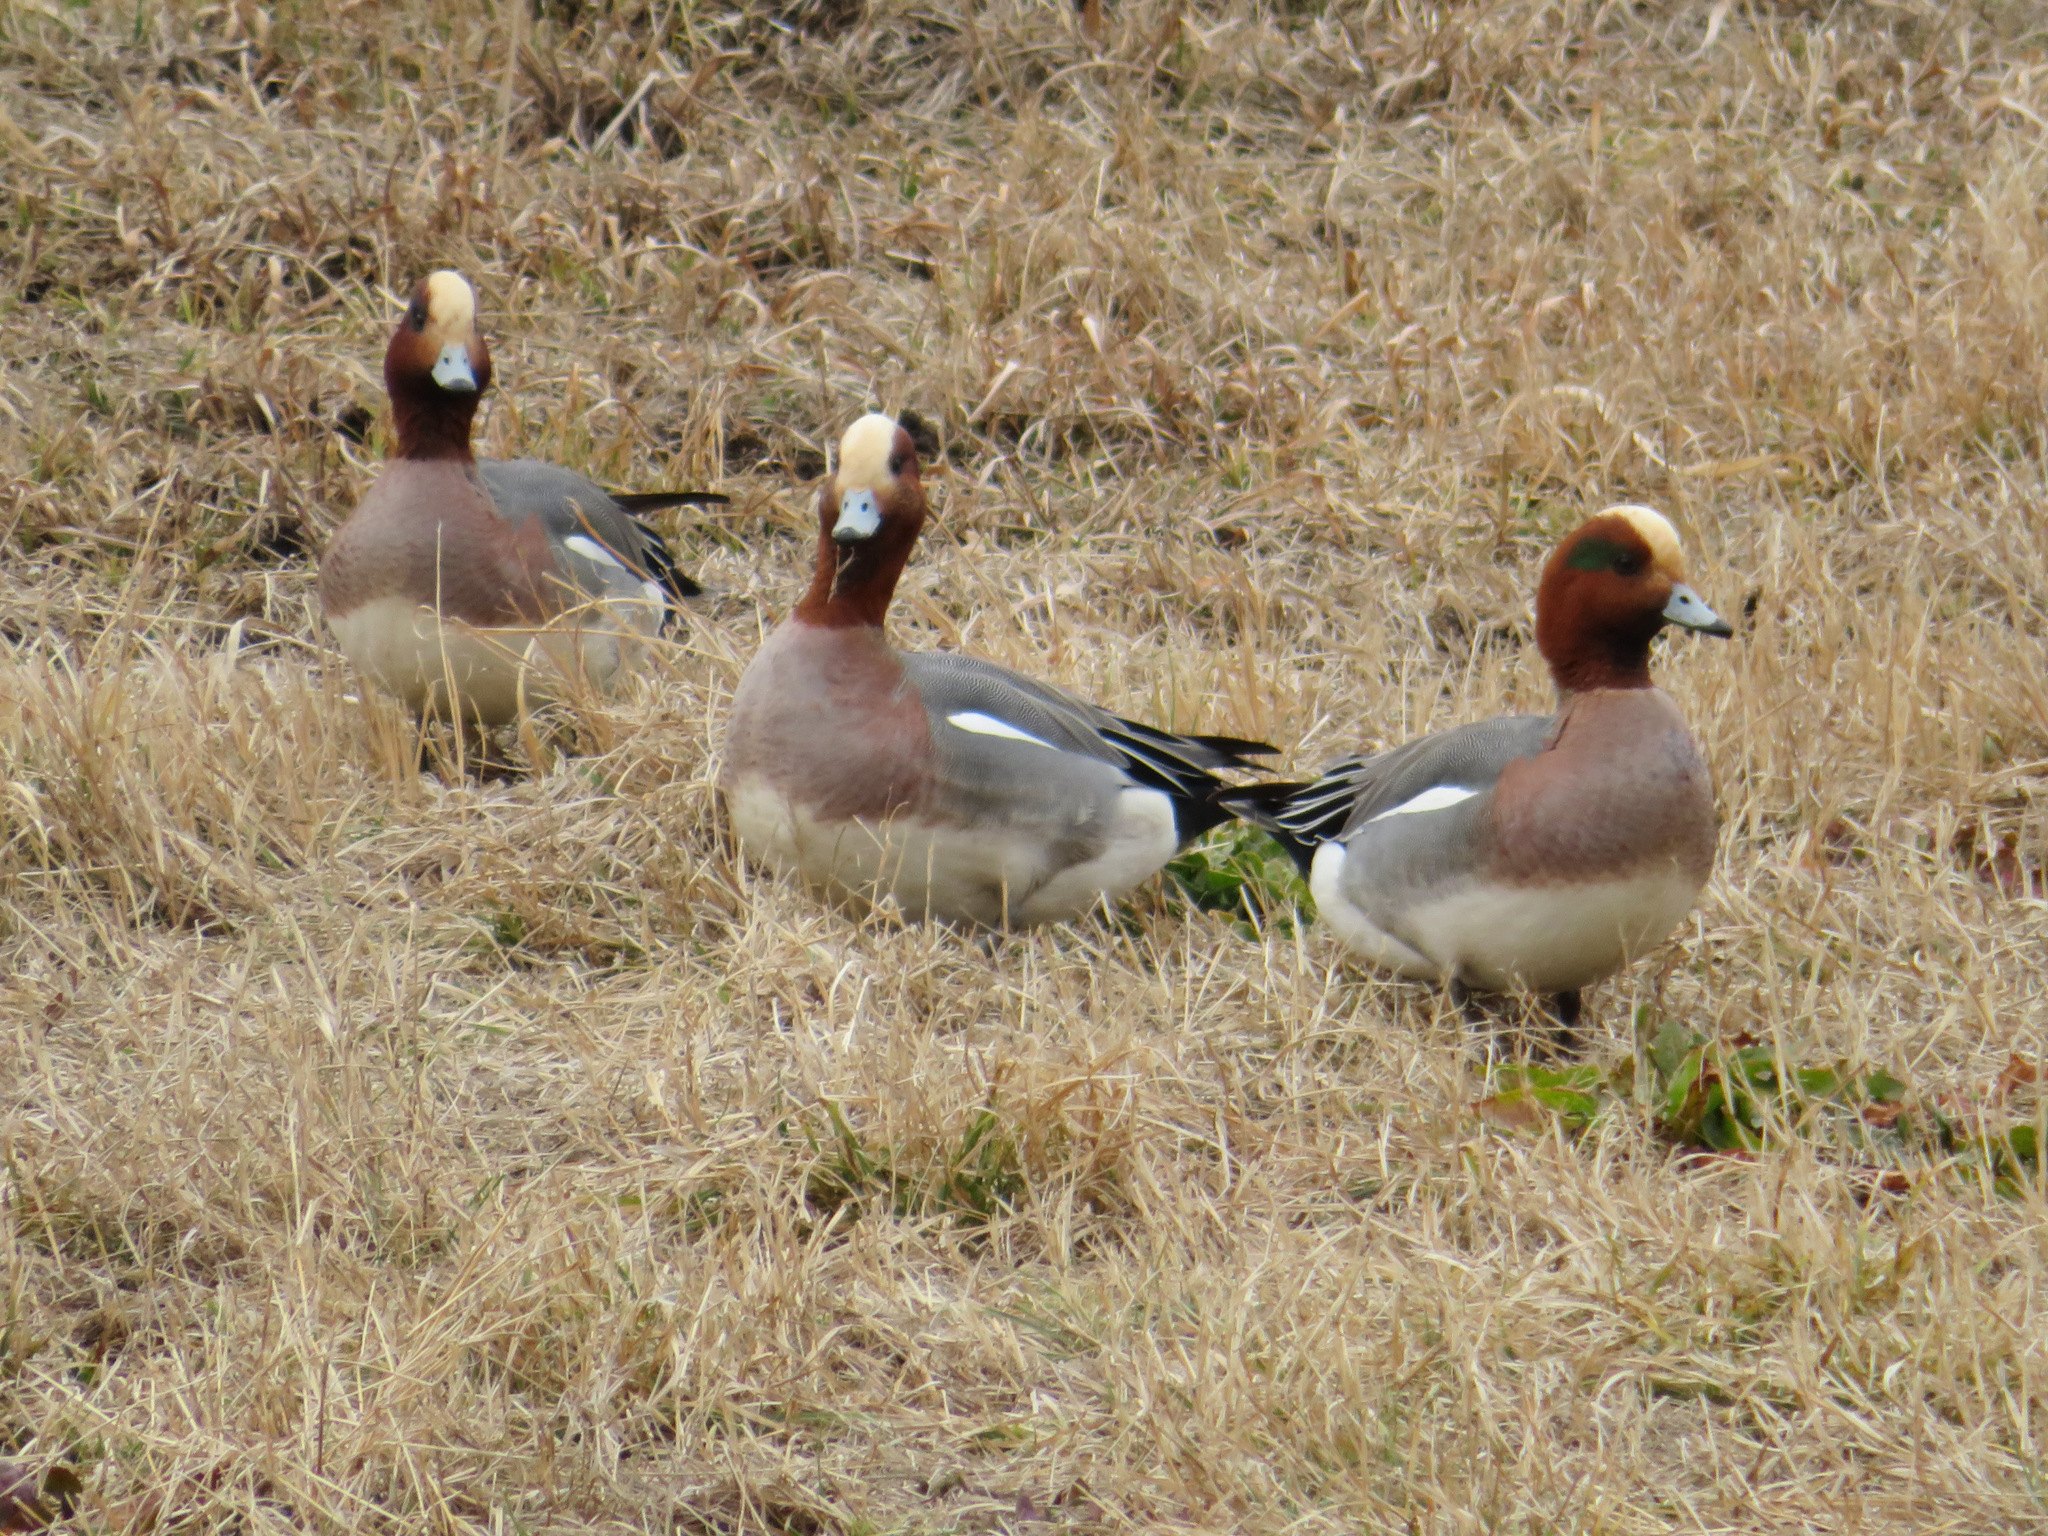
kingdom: Animalia
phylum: Chordata
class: Aves
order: Anseriformes
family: Anatidae
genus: Mareca
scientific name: Mareca penelope
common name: Eurasian wigeon
